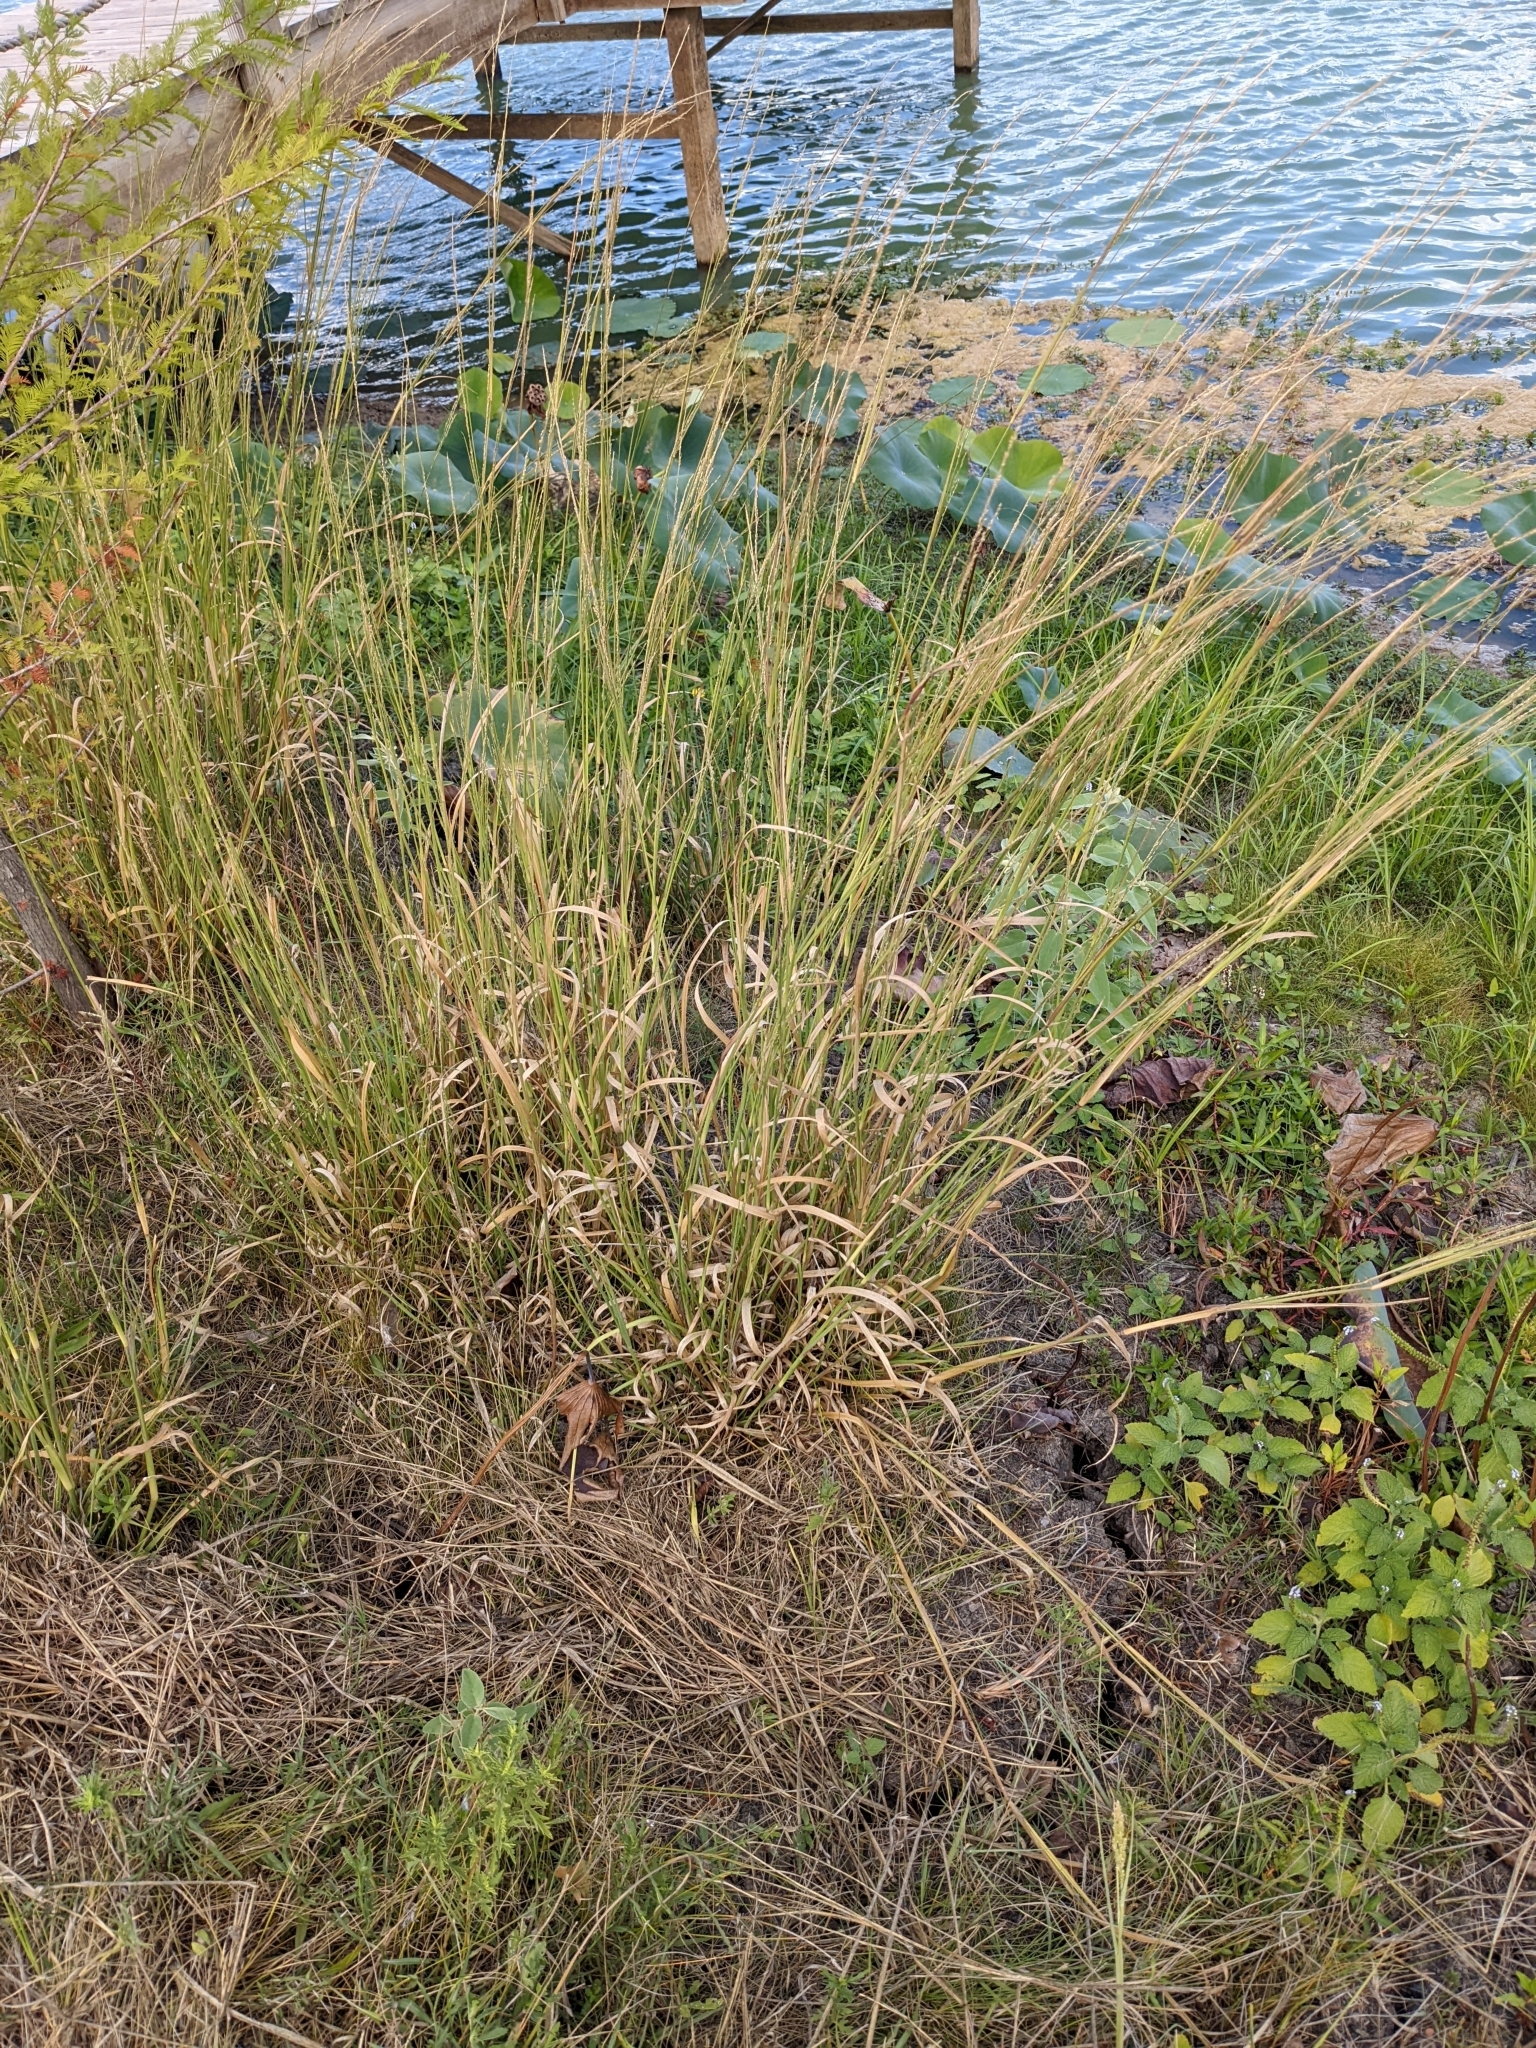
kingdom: Plantae
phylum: Tracheophyta
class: Liliopsida
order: Poales
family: Poaceae
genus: Coleataenia
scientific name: Coleataenia longifolia
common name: Long-leaved panicgrass
